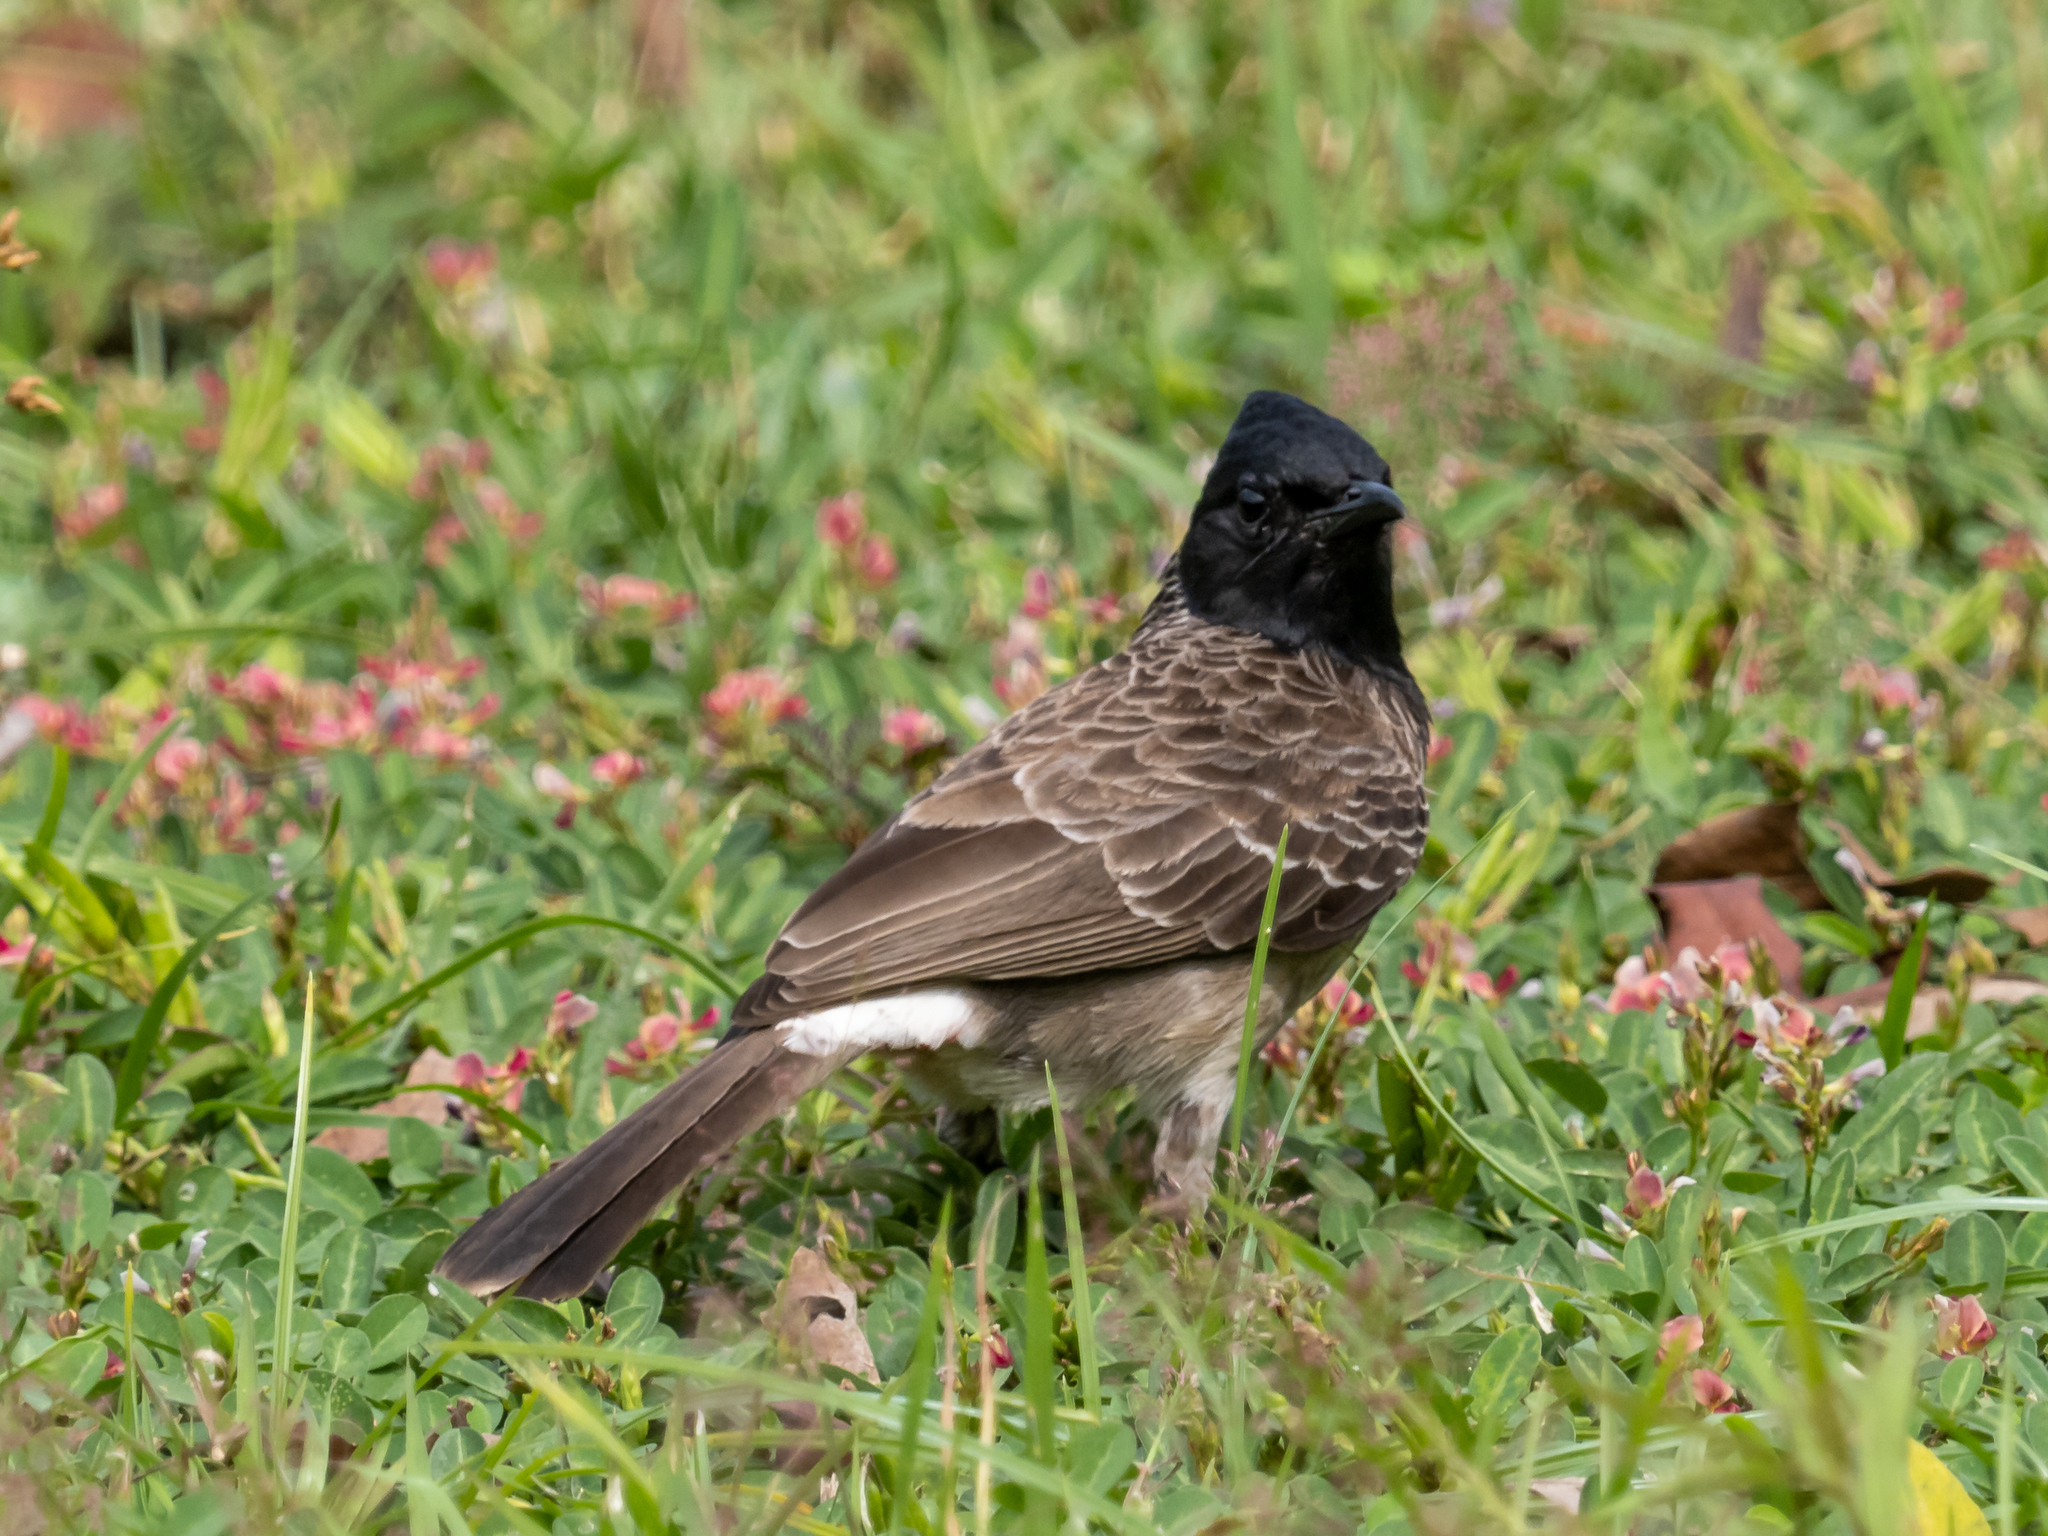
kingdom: Animalia
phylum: Chordata
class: Aves
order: Passeriformes
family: Pycnonotidae
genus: Pycnonotus
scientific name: Pycnonotus cafer
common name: Red-vented bulbul
